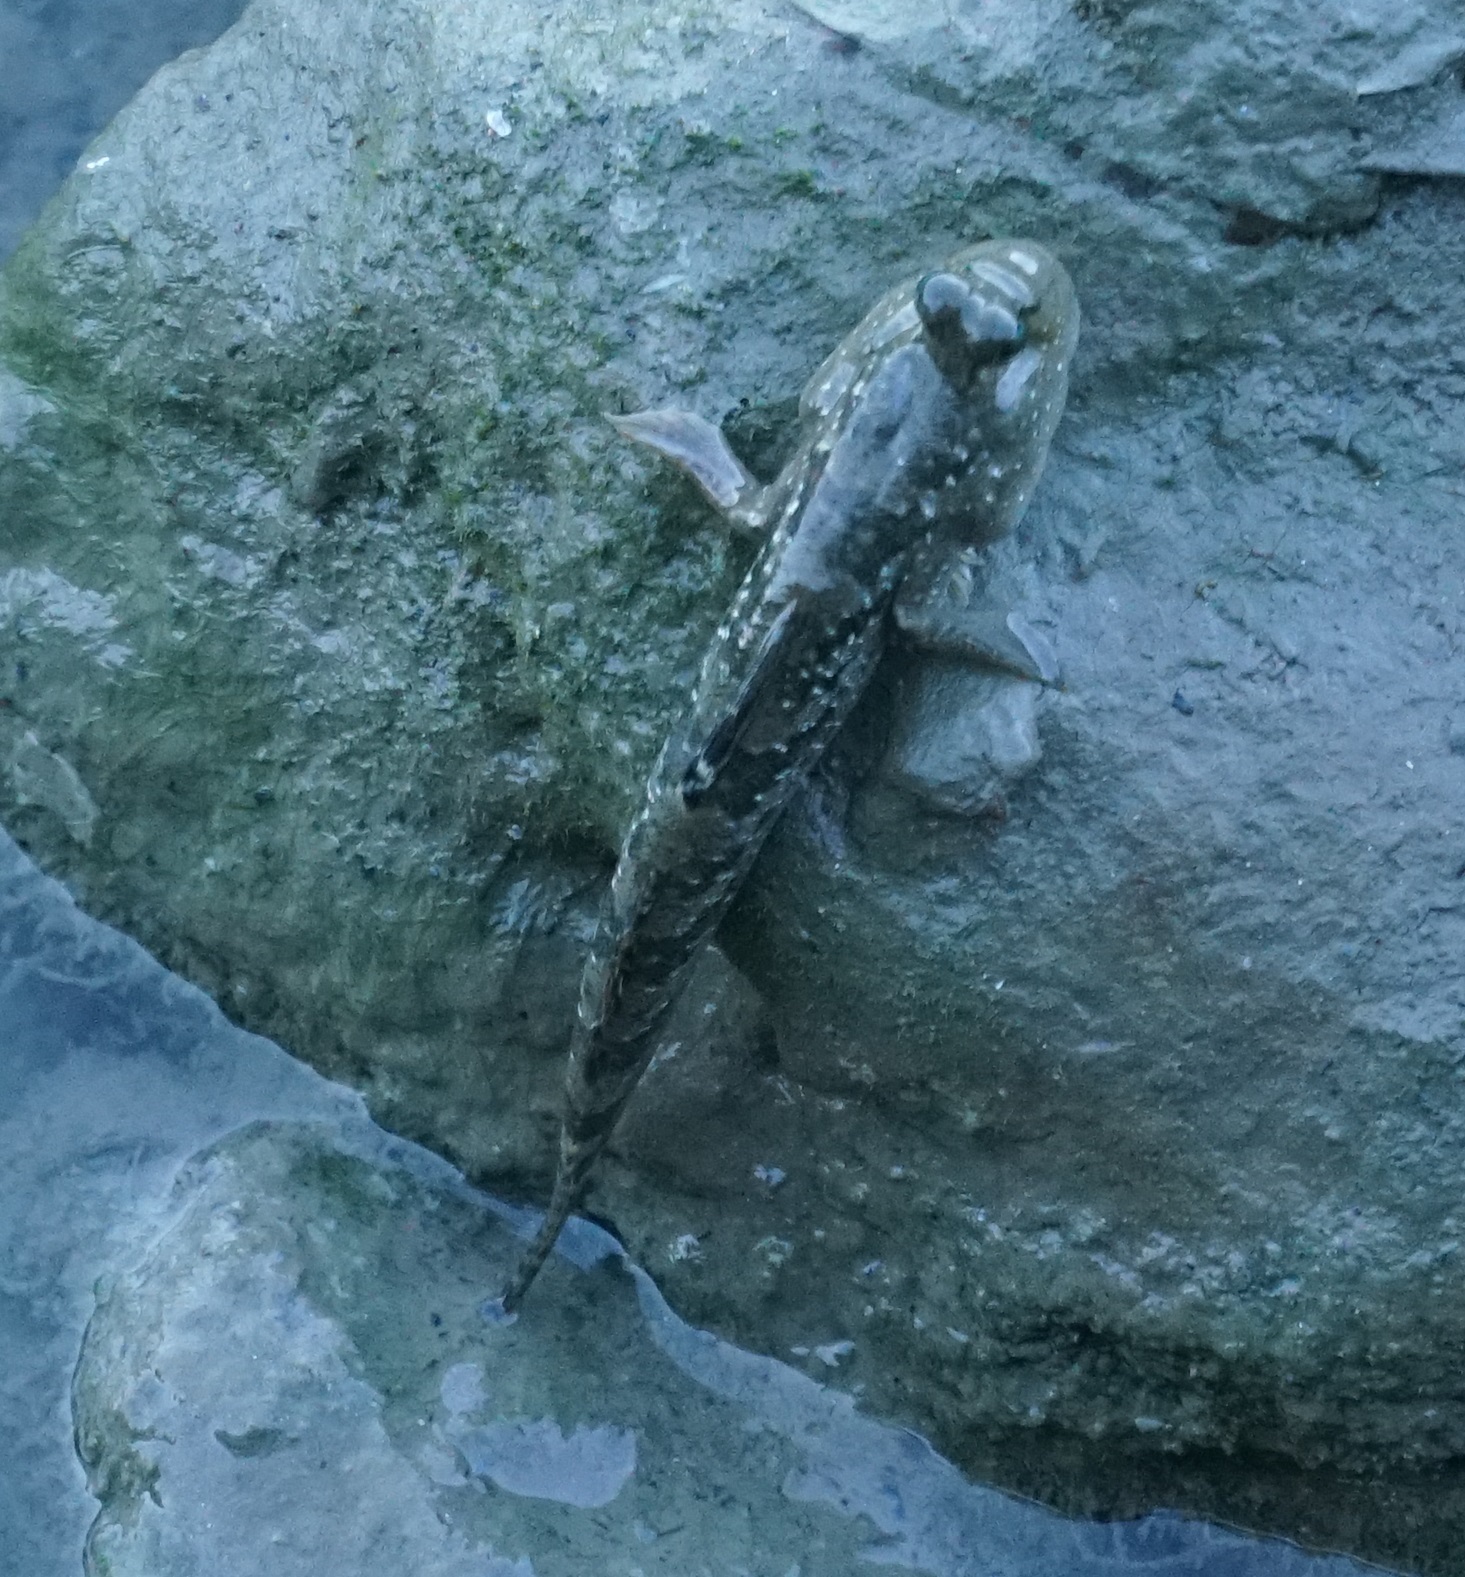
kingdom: Animalia
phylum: Chordata
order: Perciformes
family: Gobiidae
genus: Periophthalmus
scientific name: Periophthalmus argentilineatus
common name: Barred mudskipper
